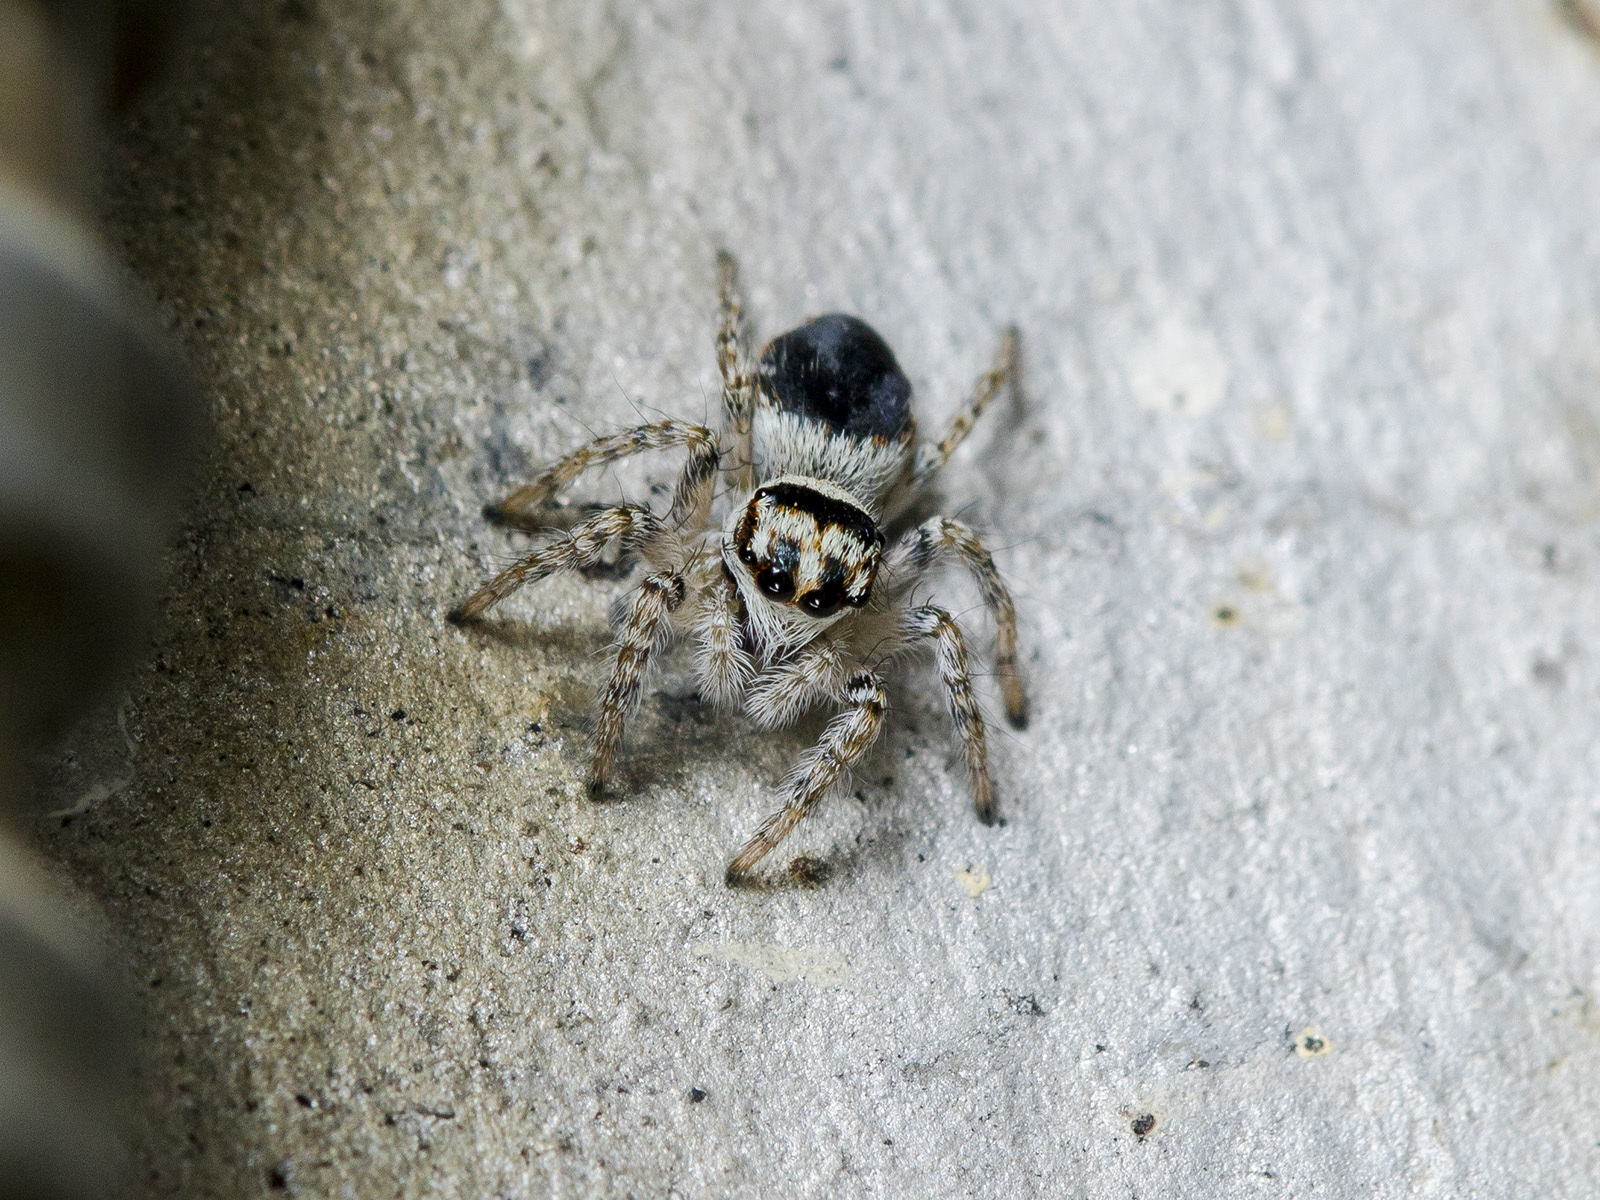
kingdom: Animalia
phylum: Arthropoda
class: Arachnida
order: Araneae
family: Salticidae
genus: Philaeus
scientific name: Philaeus chrysops
